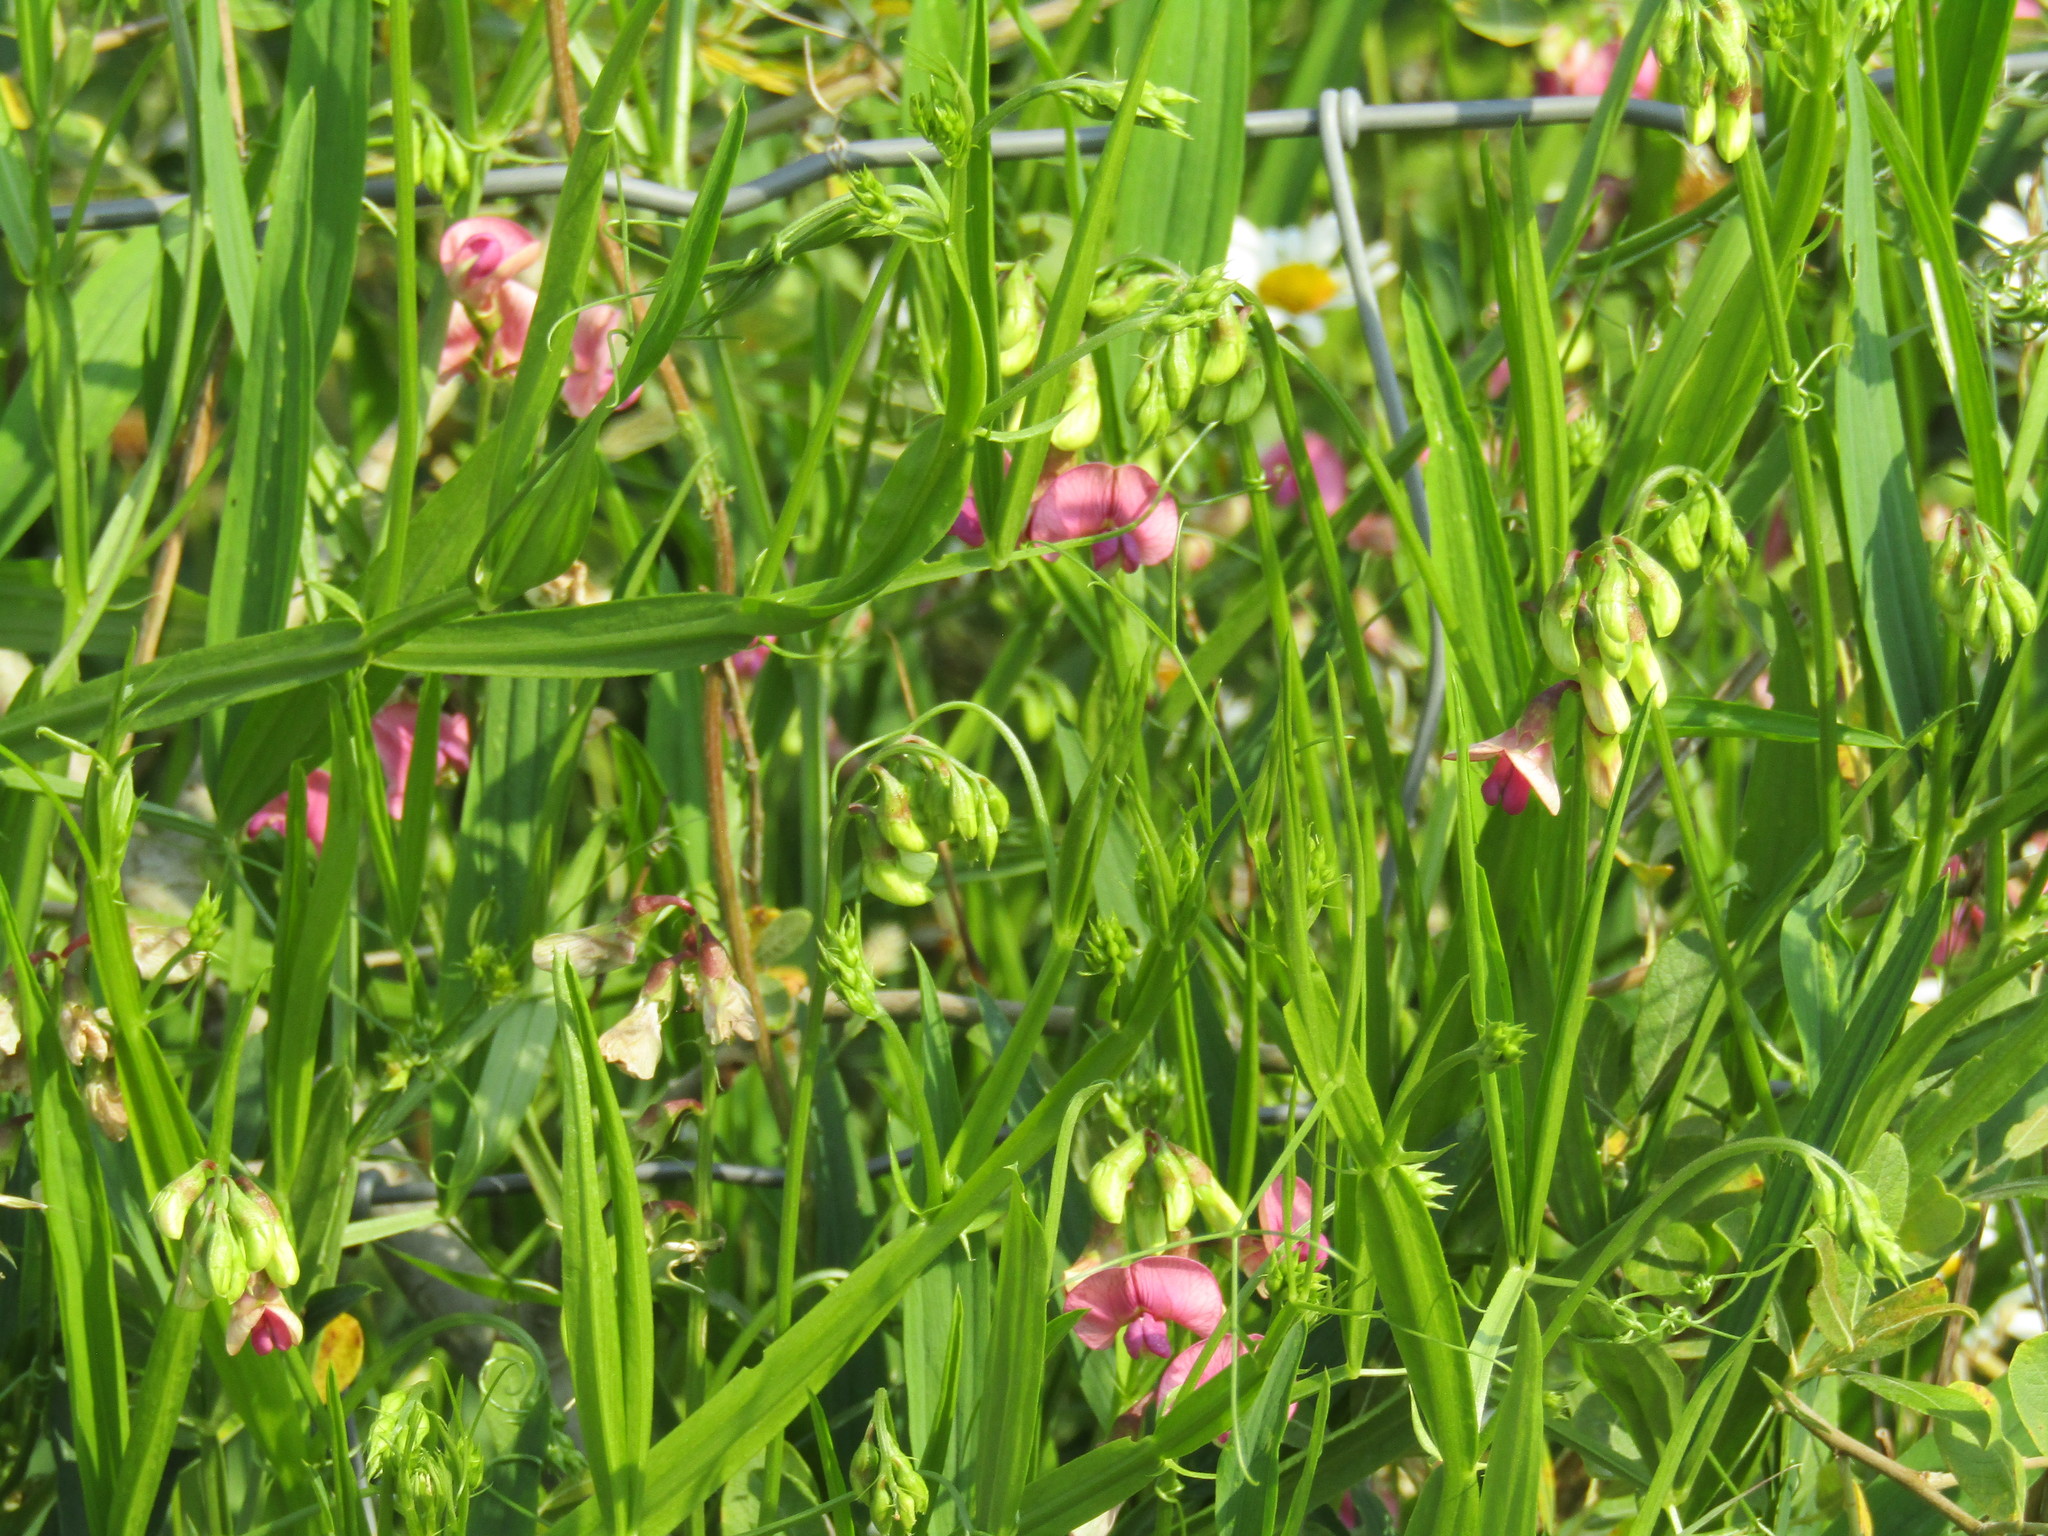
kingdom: Plantae
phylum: Tracheophyta
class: Magnoliopsida
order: Fabales
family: Fabaceae
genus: Lathyrus
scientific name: Lathyrus sylvestris
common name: Flat pea
